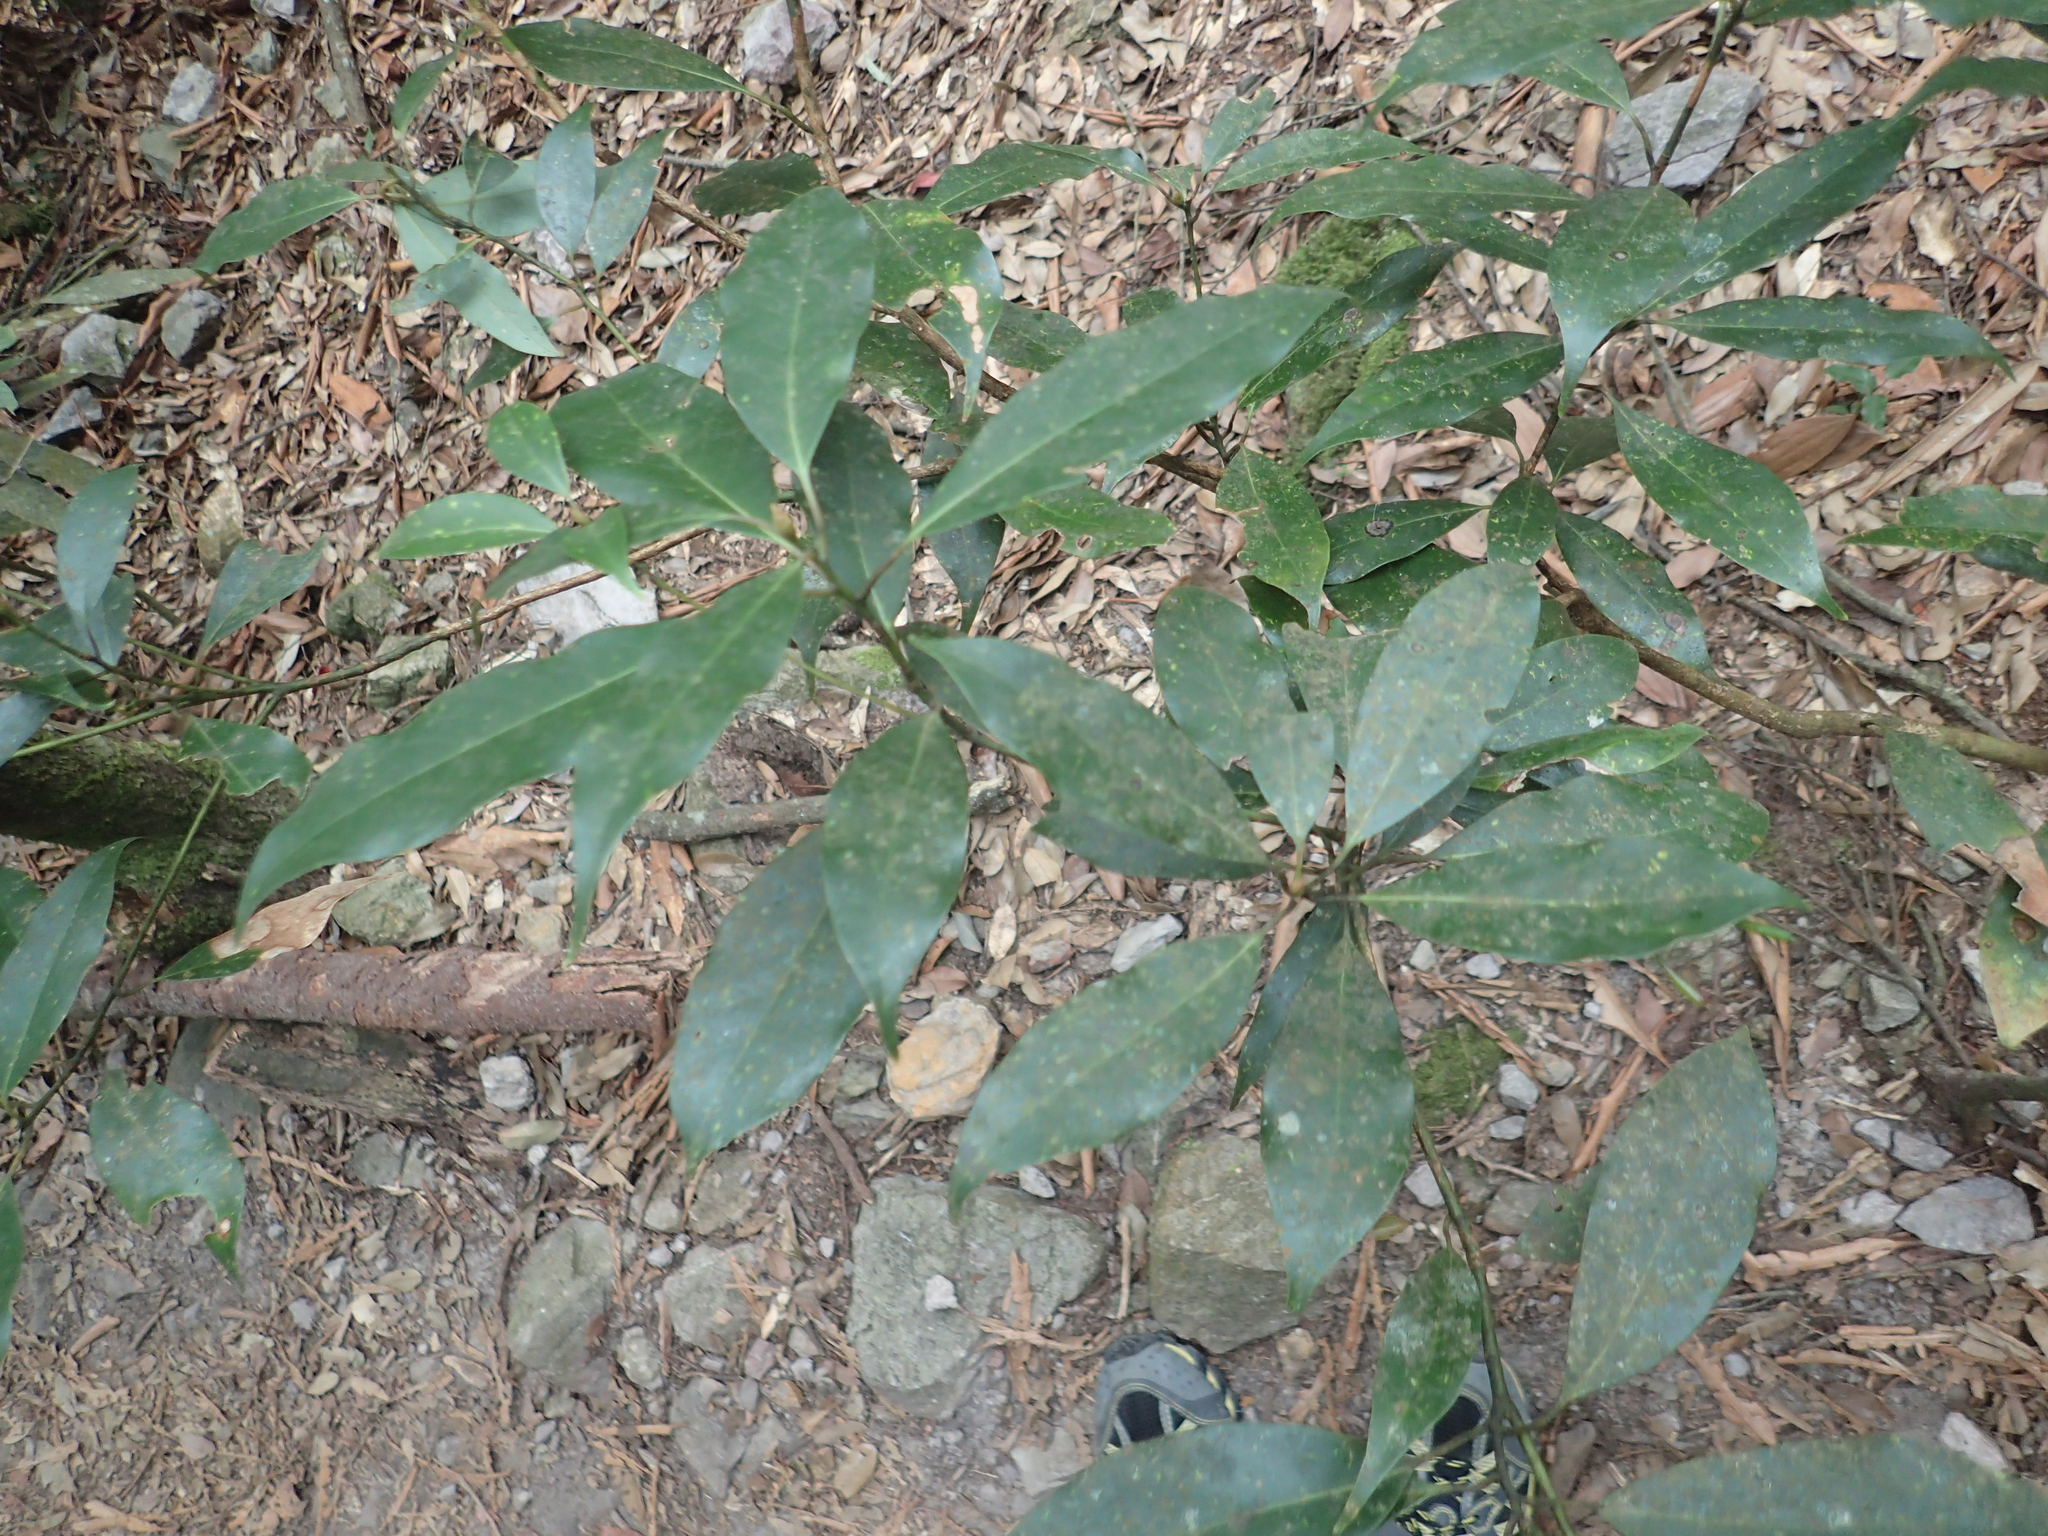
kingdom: Plantae
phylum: Tracheophyta
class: Magnoliopsida
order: Laurales
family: Lauraceae
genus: Machilus
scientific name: Machilus thunbergii
